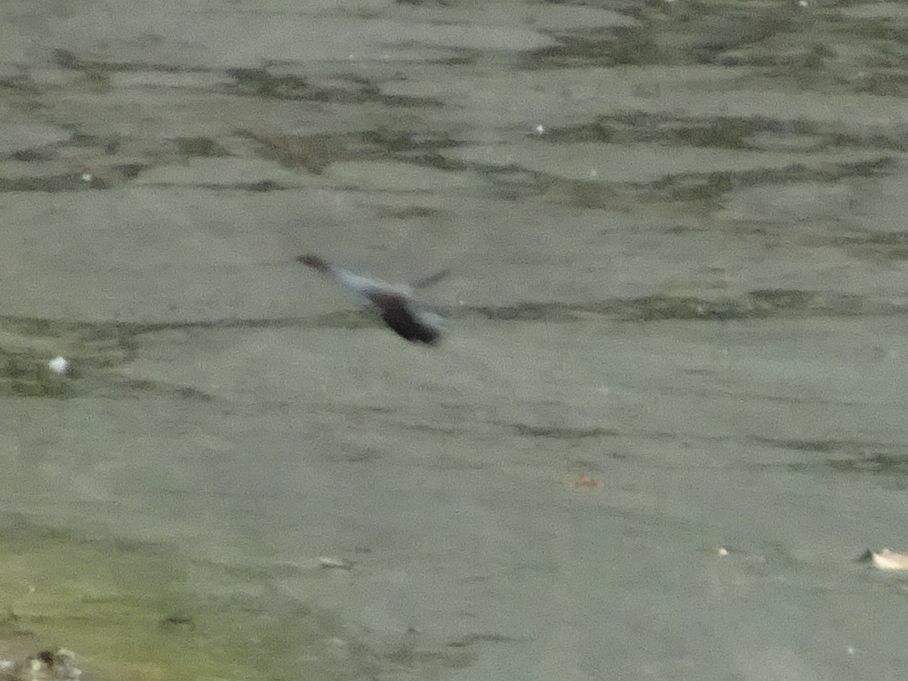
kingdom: Animalia
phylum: Arthropoda
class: Insecta
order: Odonata
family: Libellulidae
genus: Orthetrum
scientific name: Orthetrum cancellatum
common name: Black-tailed skimmer
